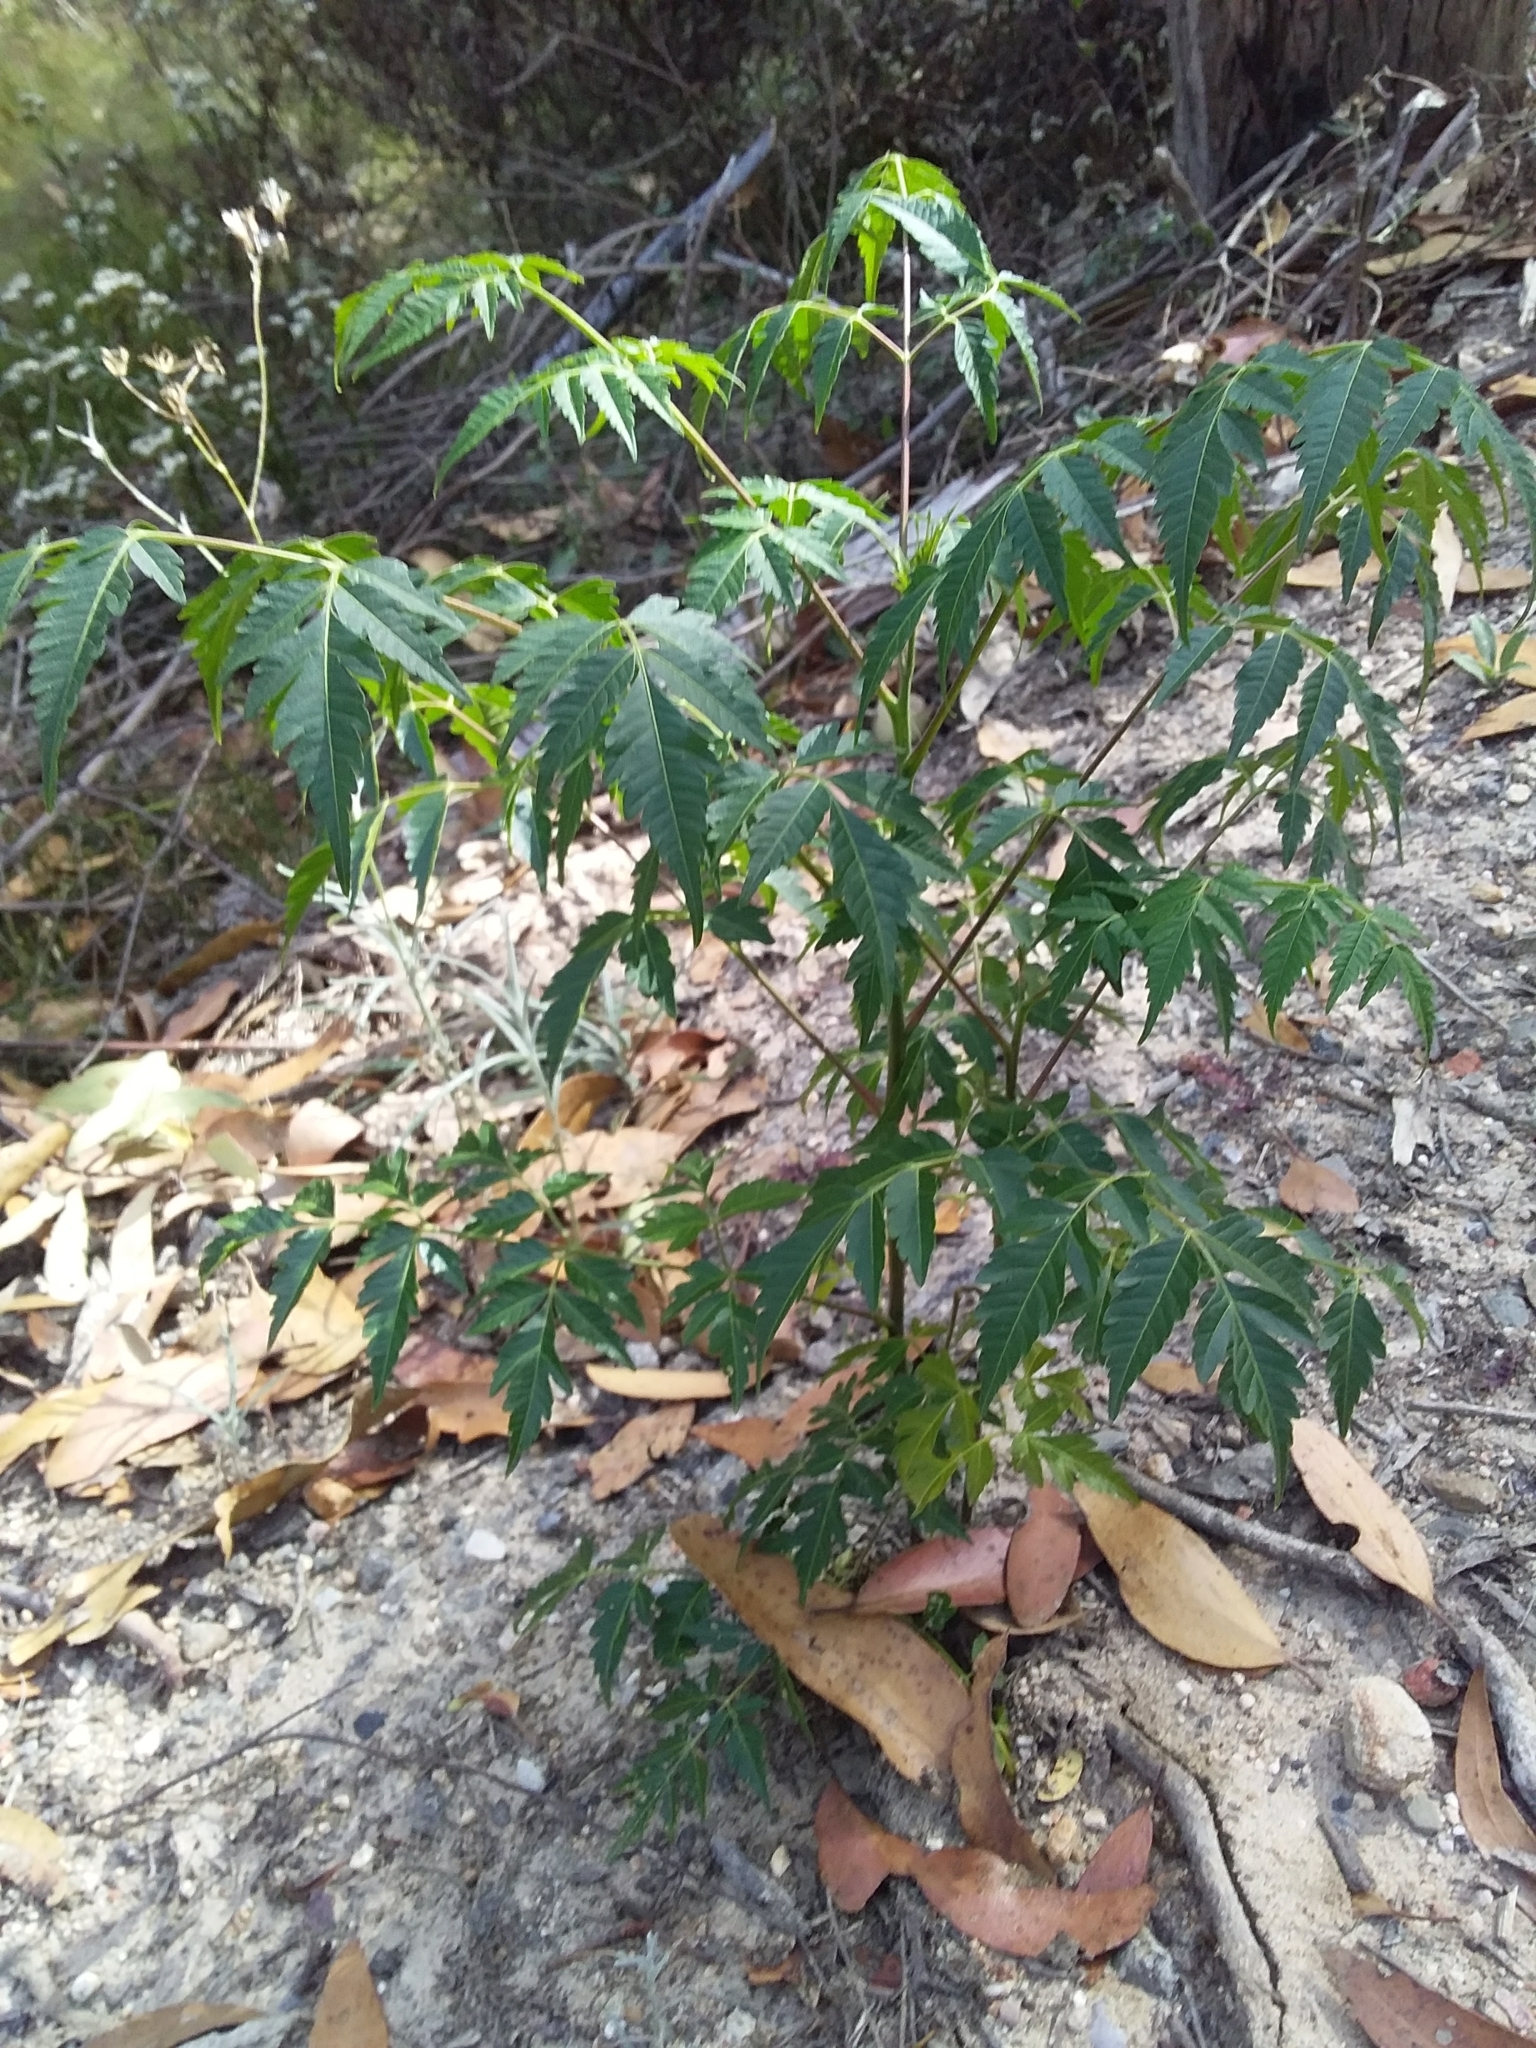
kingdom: Plantae
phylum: Tracheophyta
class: Magnoliopsida
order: Sapindales
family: Meliaceae
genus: Melia
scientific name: Melia azedarach
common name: Chinaberrytree
